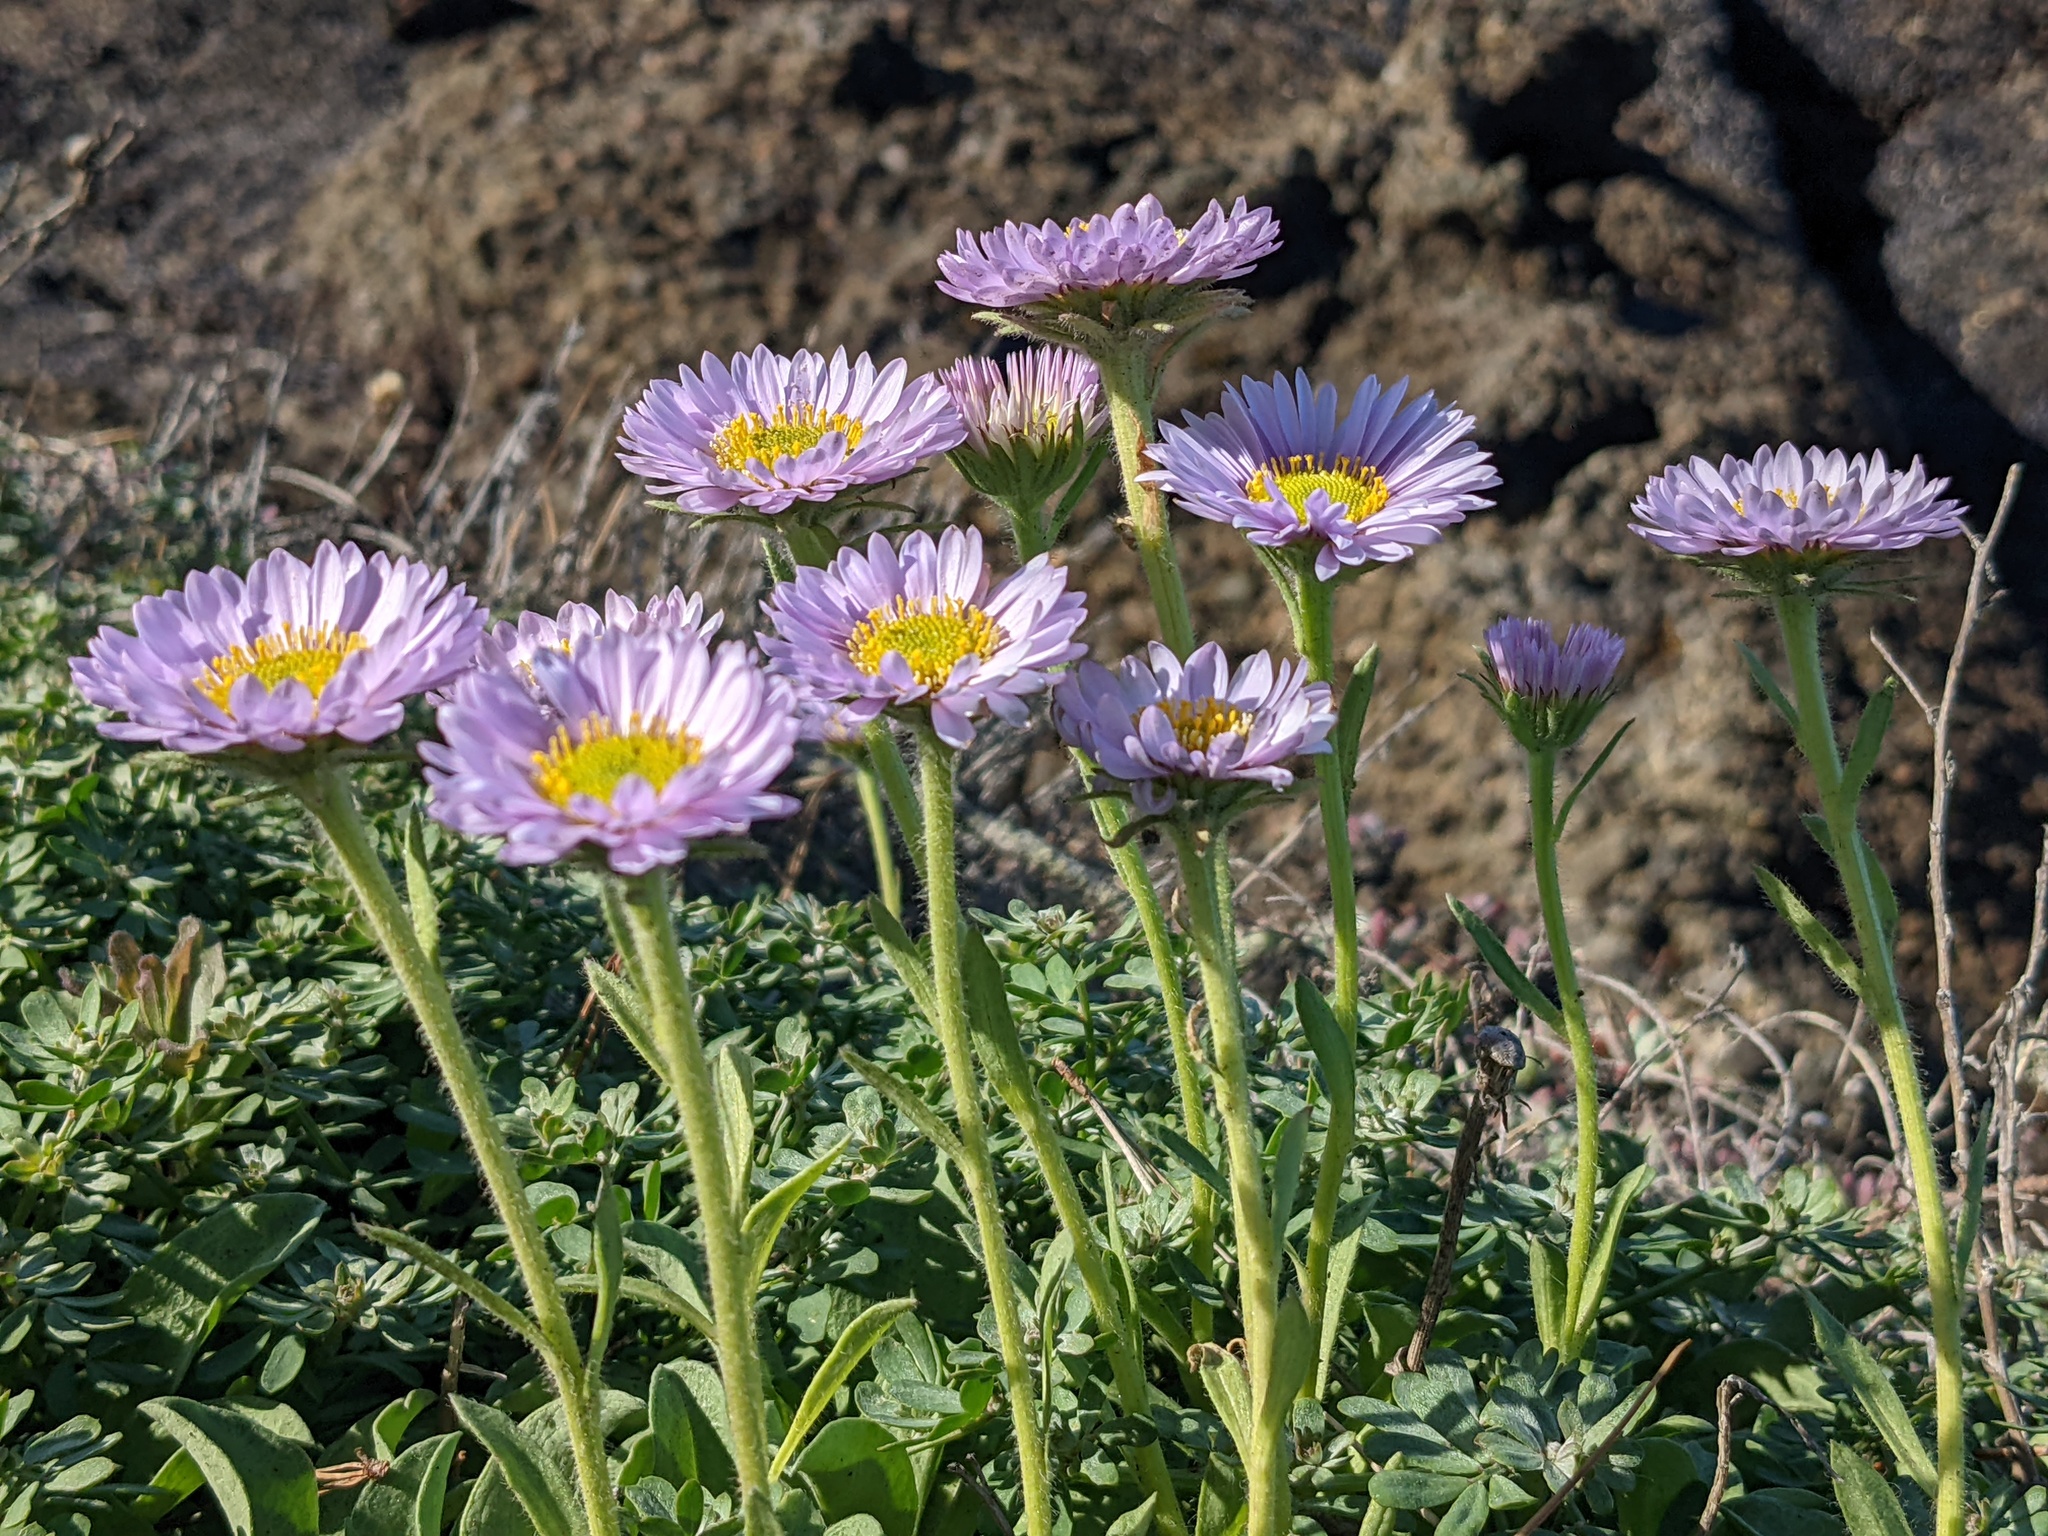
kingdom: Plantae
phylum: Tracheophyta
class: Magnoliopsida
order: Asterales
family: Asteraceae
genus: Erigeron
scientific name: Erigeron glaucus
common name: Seaside daisy
